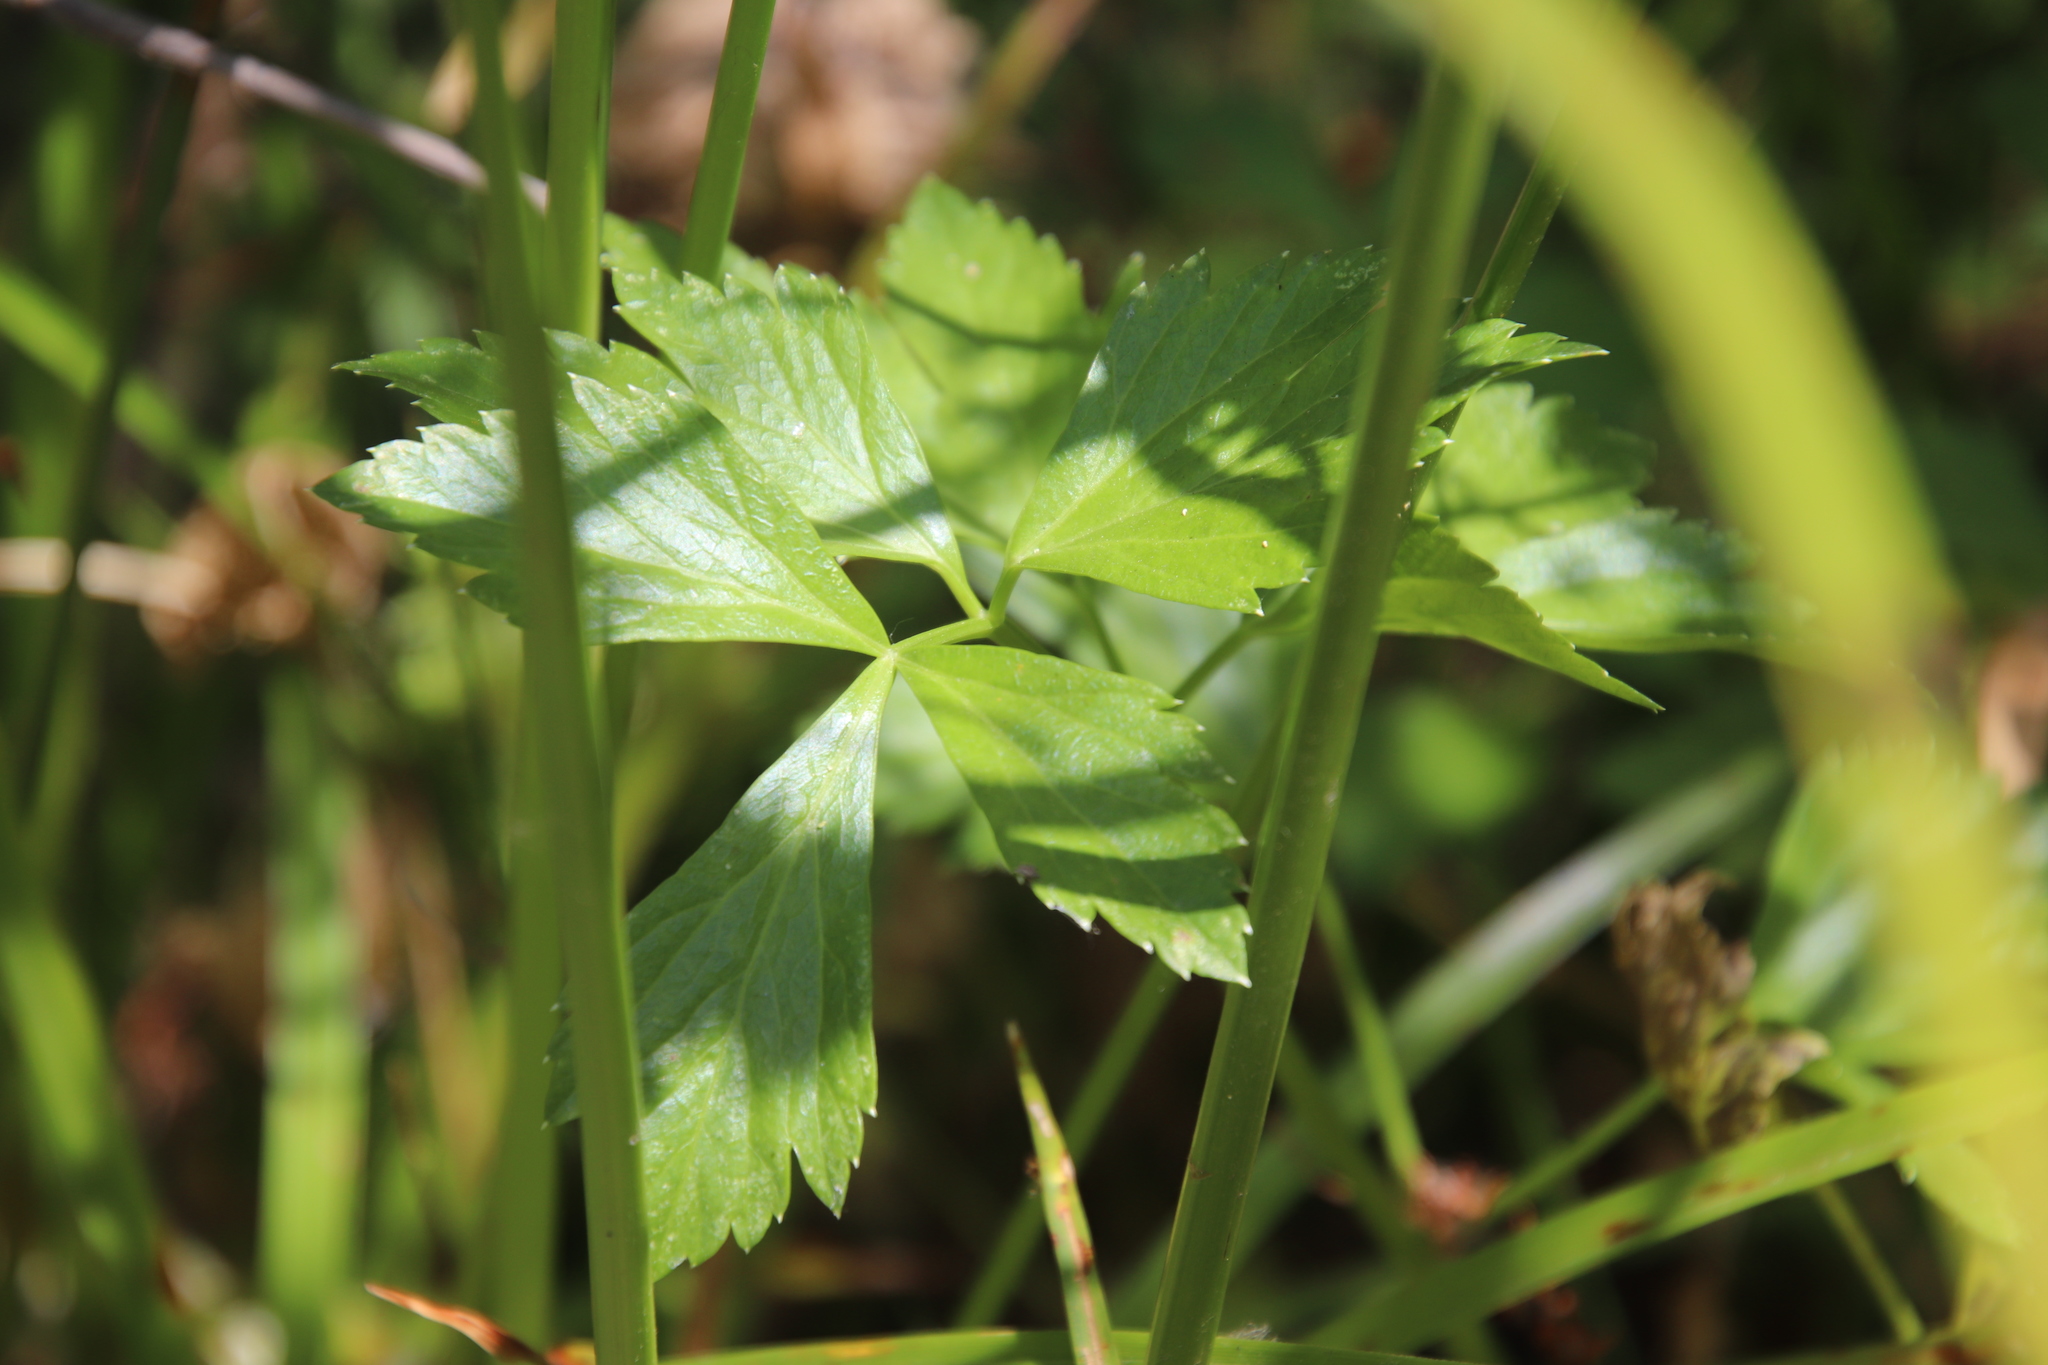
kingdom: Plantae
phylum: Tracheophyta
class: Magnoliopsida
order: Apiales
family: Apiaceae
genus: Apium
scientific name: Apium graveolens
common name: Wild celery
